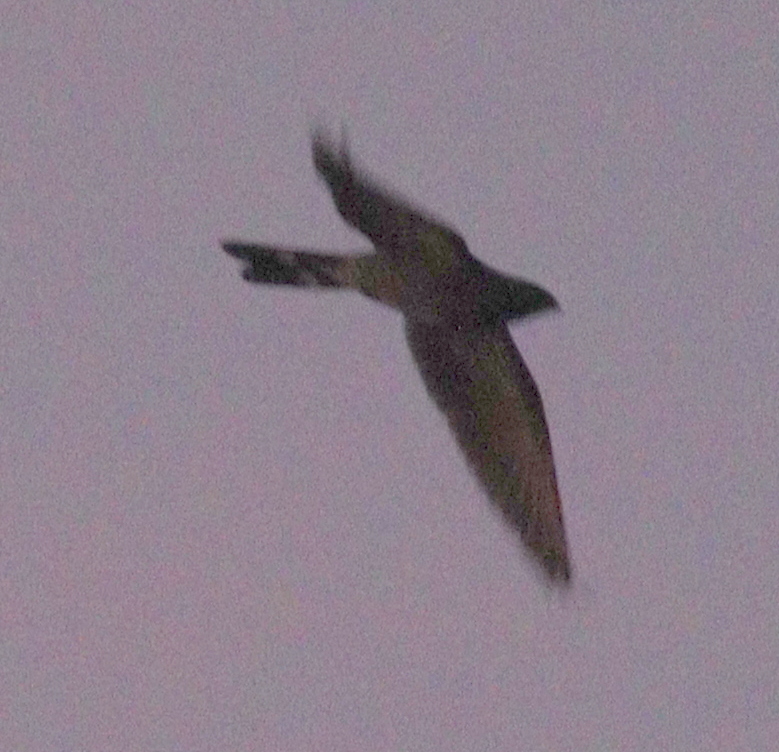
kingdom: Animalia
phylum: Chordata
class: Aves
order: Caprimulgiformes
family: Caprimulgidae
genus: Nyctiprogne
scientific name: Nyctiprogne leucopyga
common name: Band-tailed nighthawk
